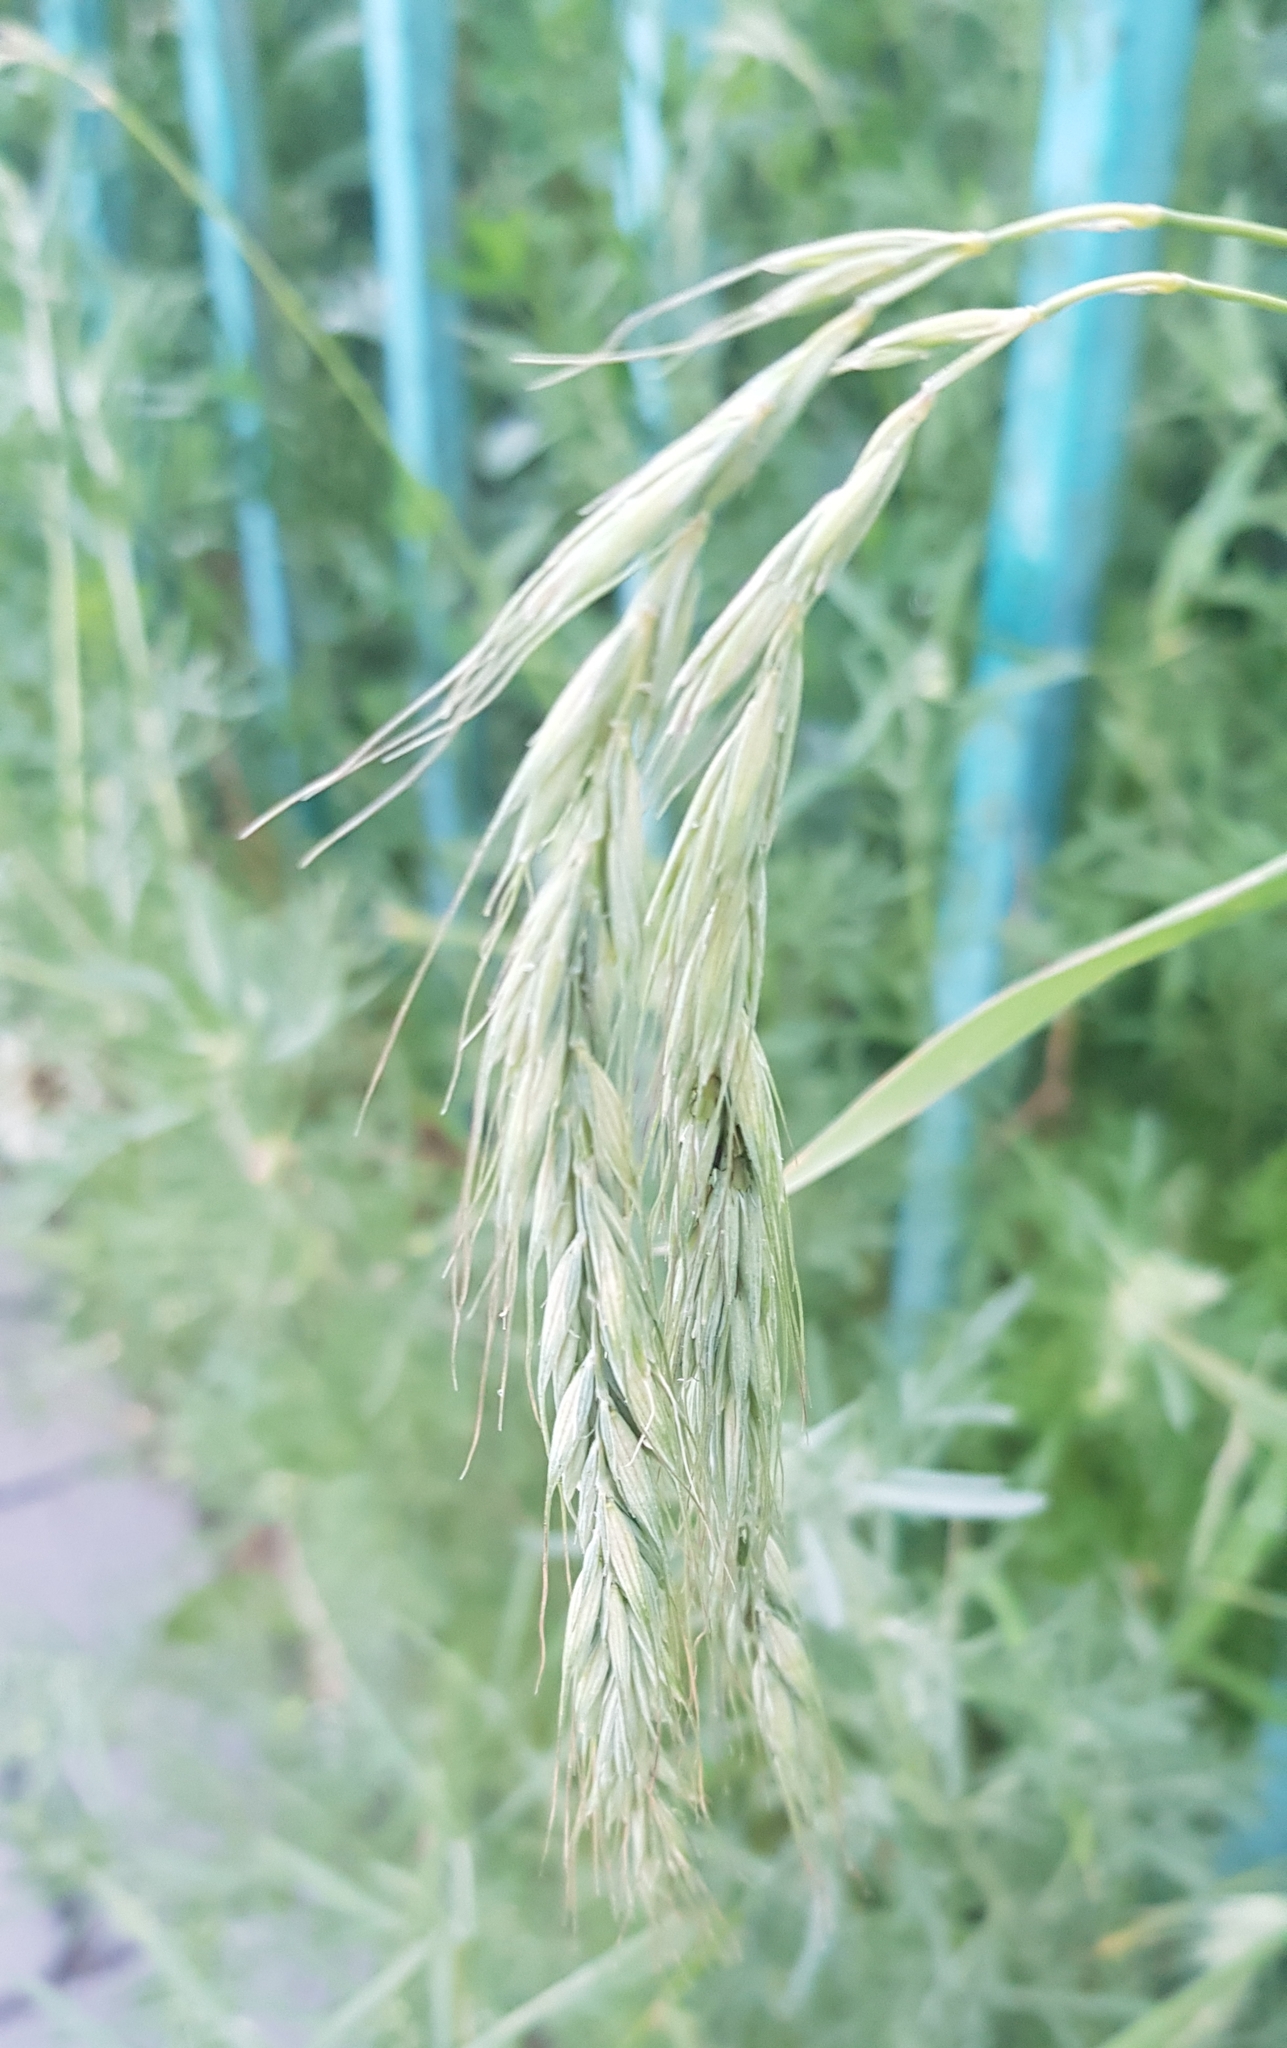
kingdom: Plantae
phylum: Tracheophyta
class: Liliopsida
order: Poales
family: Poaceae
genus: Elymus
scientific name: Elymus sibiricus
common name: Siberian wildrye
